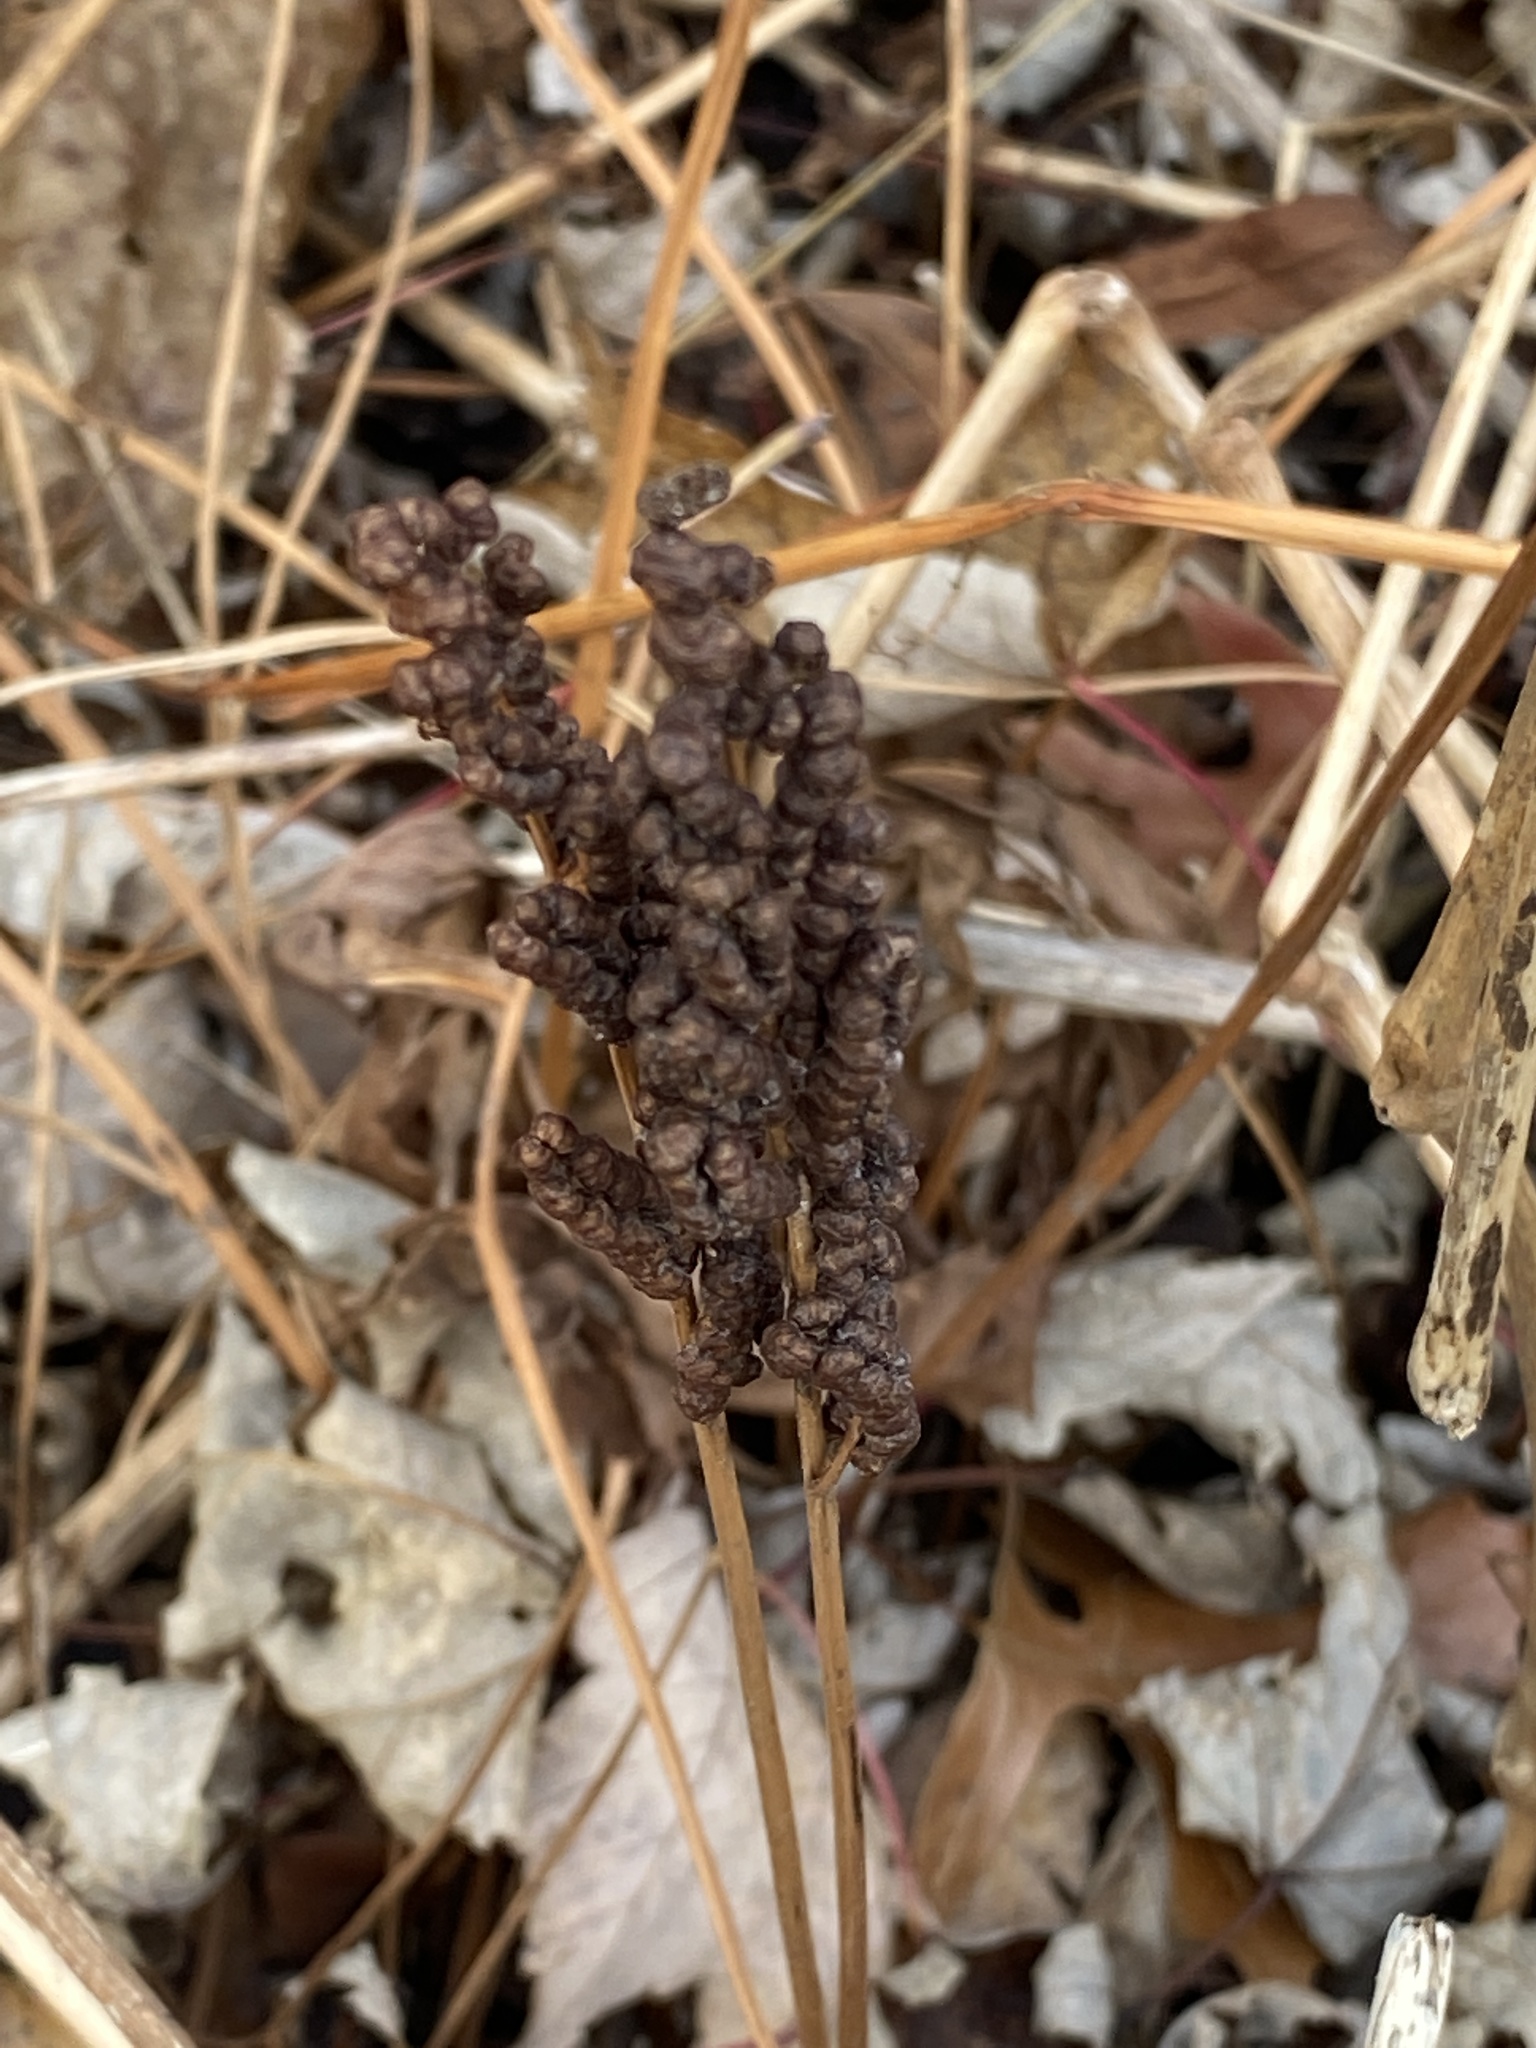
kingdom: Plantae
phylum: Tracheophyta
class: Polypodiopsida
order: Polypodiales
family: Onocleaceae
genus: Onoclea
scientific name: Onoclea sensibilis
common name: Sensitive fern
